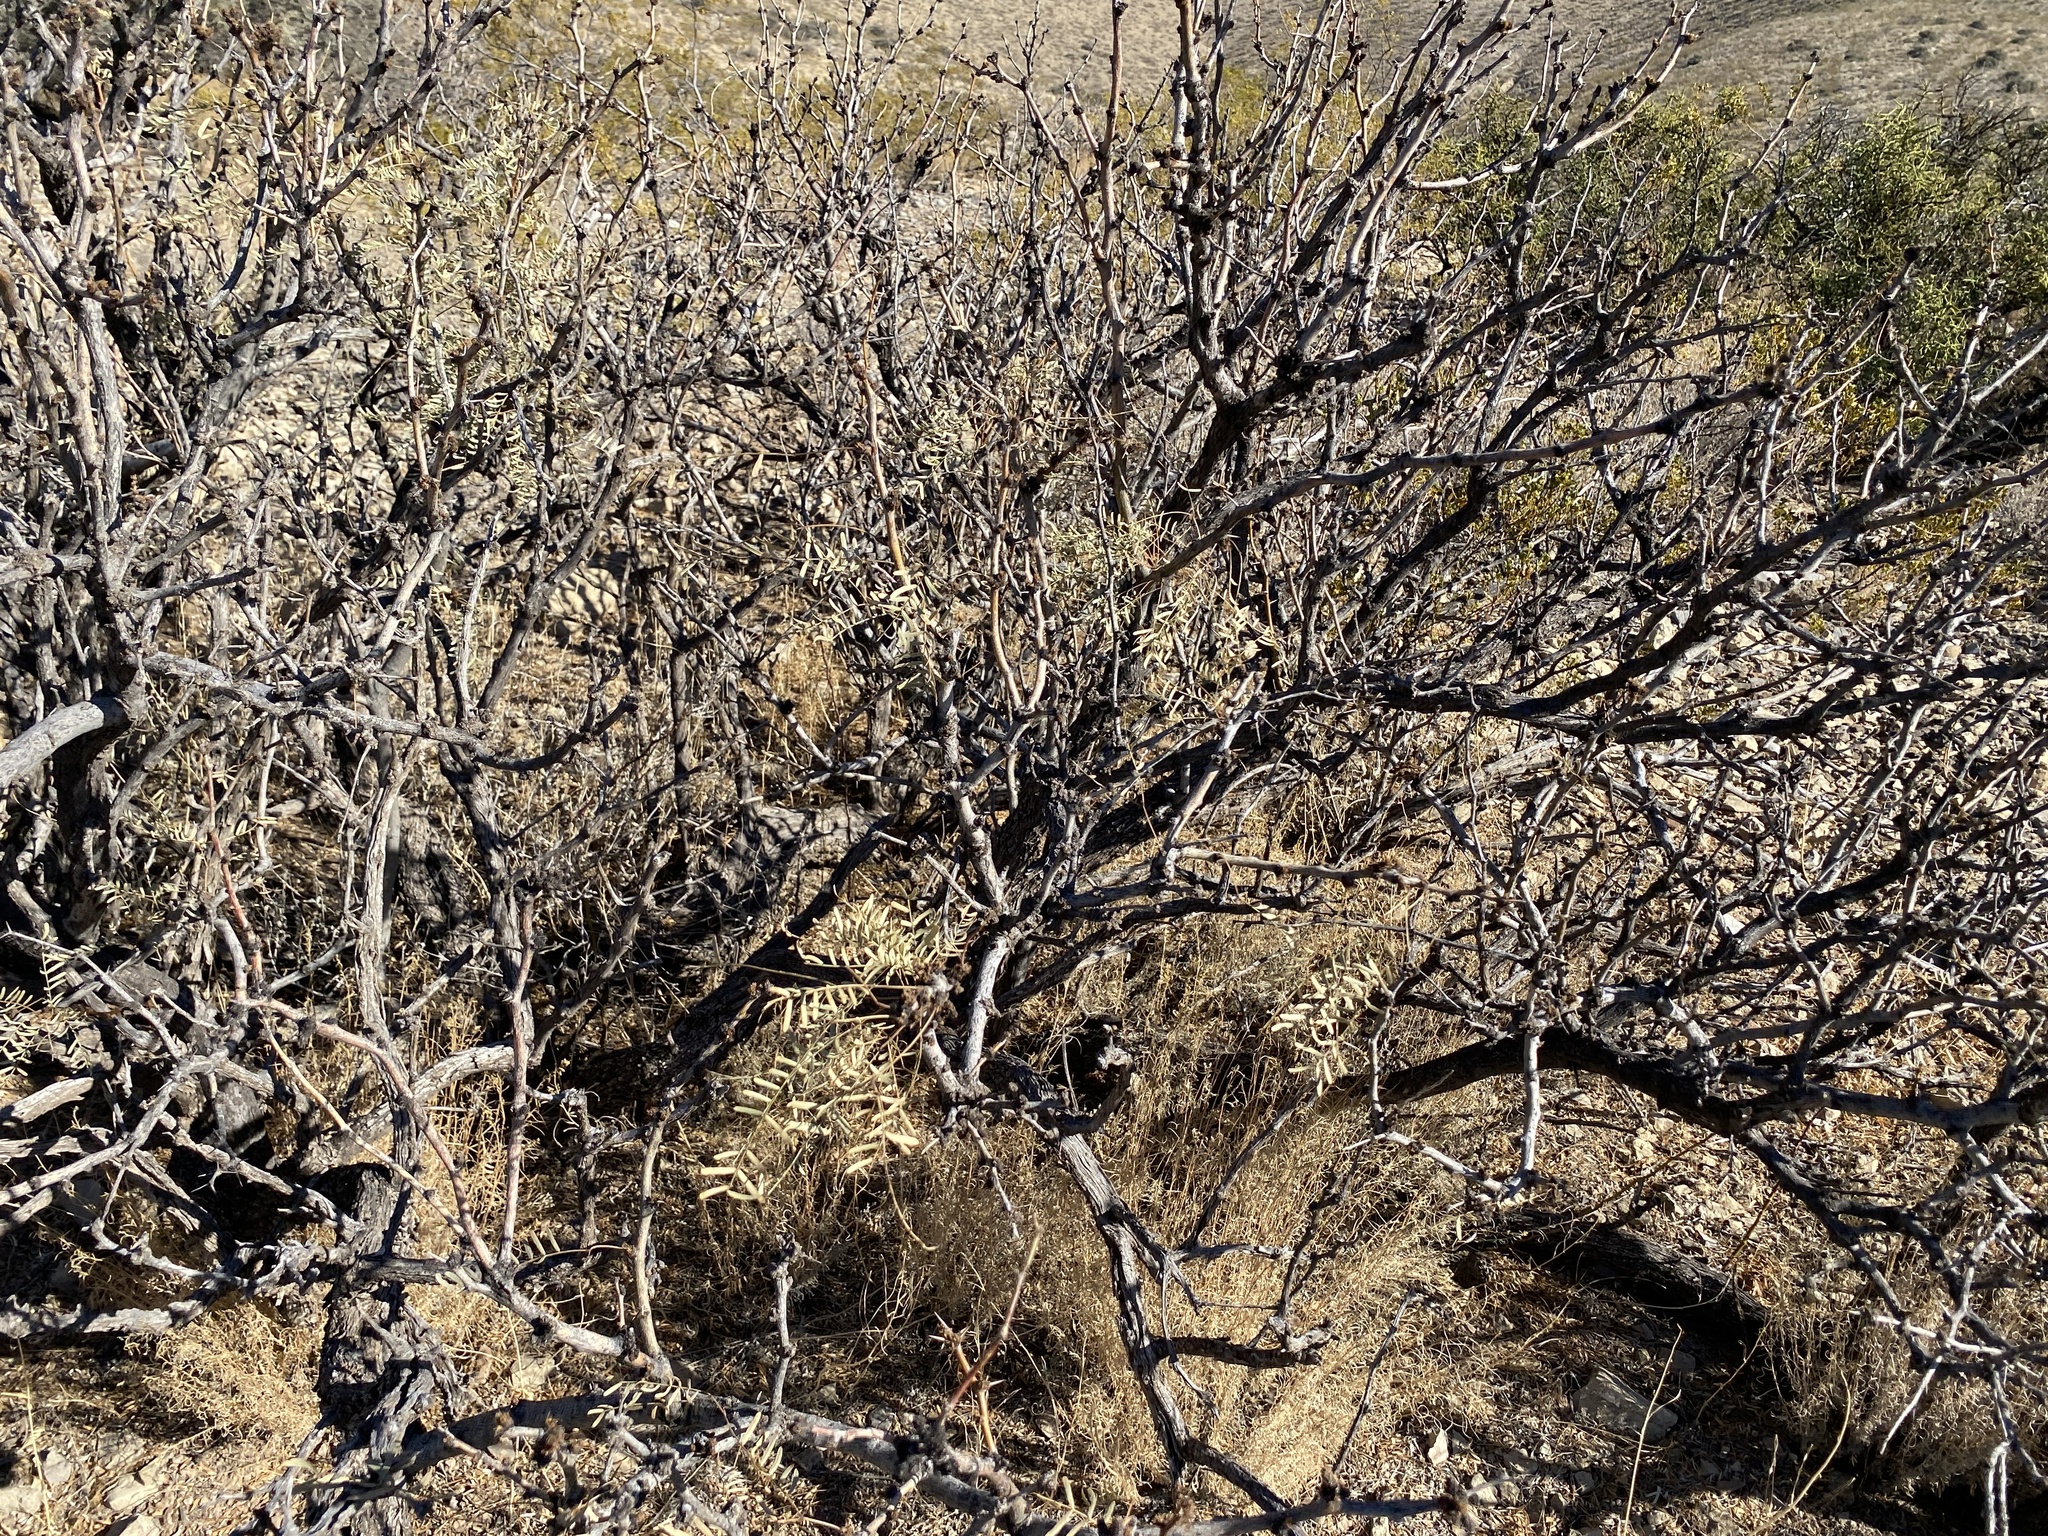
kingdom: Plantae
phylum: Tracheophyta
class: Magnoliopsida
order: Fabales
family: Fabaceae
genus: Prosopis
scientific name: Prosopis glandulosa
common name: Honey mesquite
